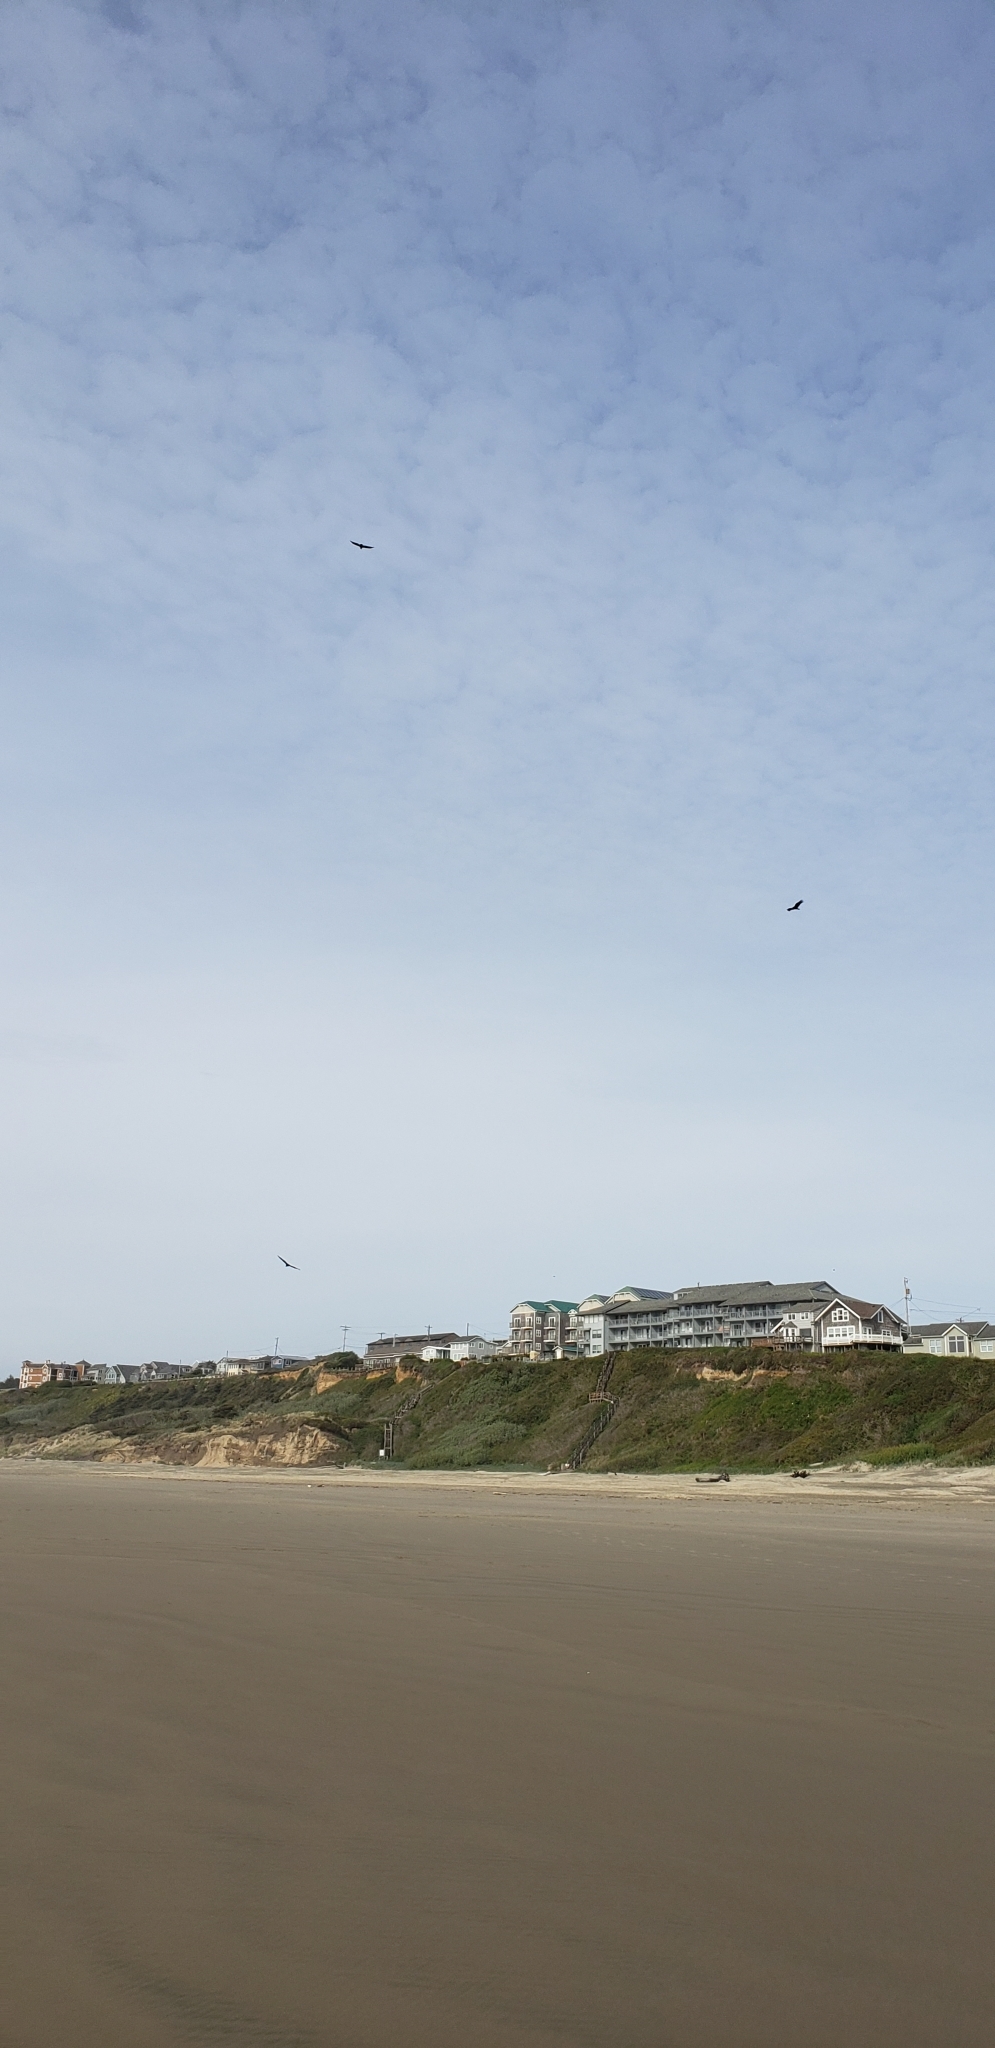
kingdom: Animalia
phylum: Chordata
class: Aves
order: Accipitriformes
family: Cathartidae
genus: Cathartes
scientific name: Cathartes aura
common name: Turkey vulture
